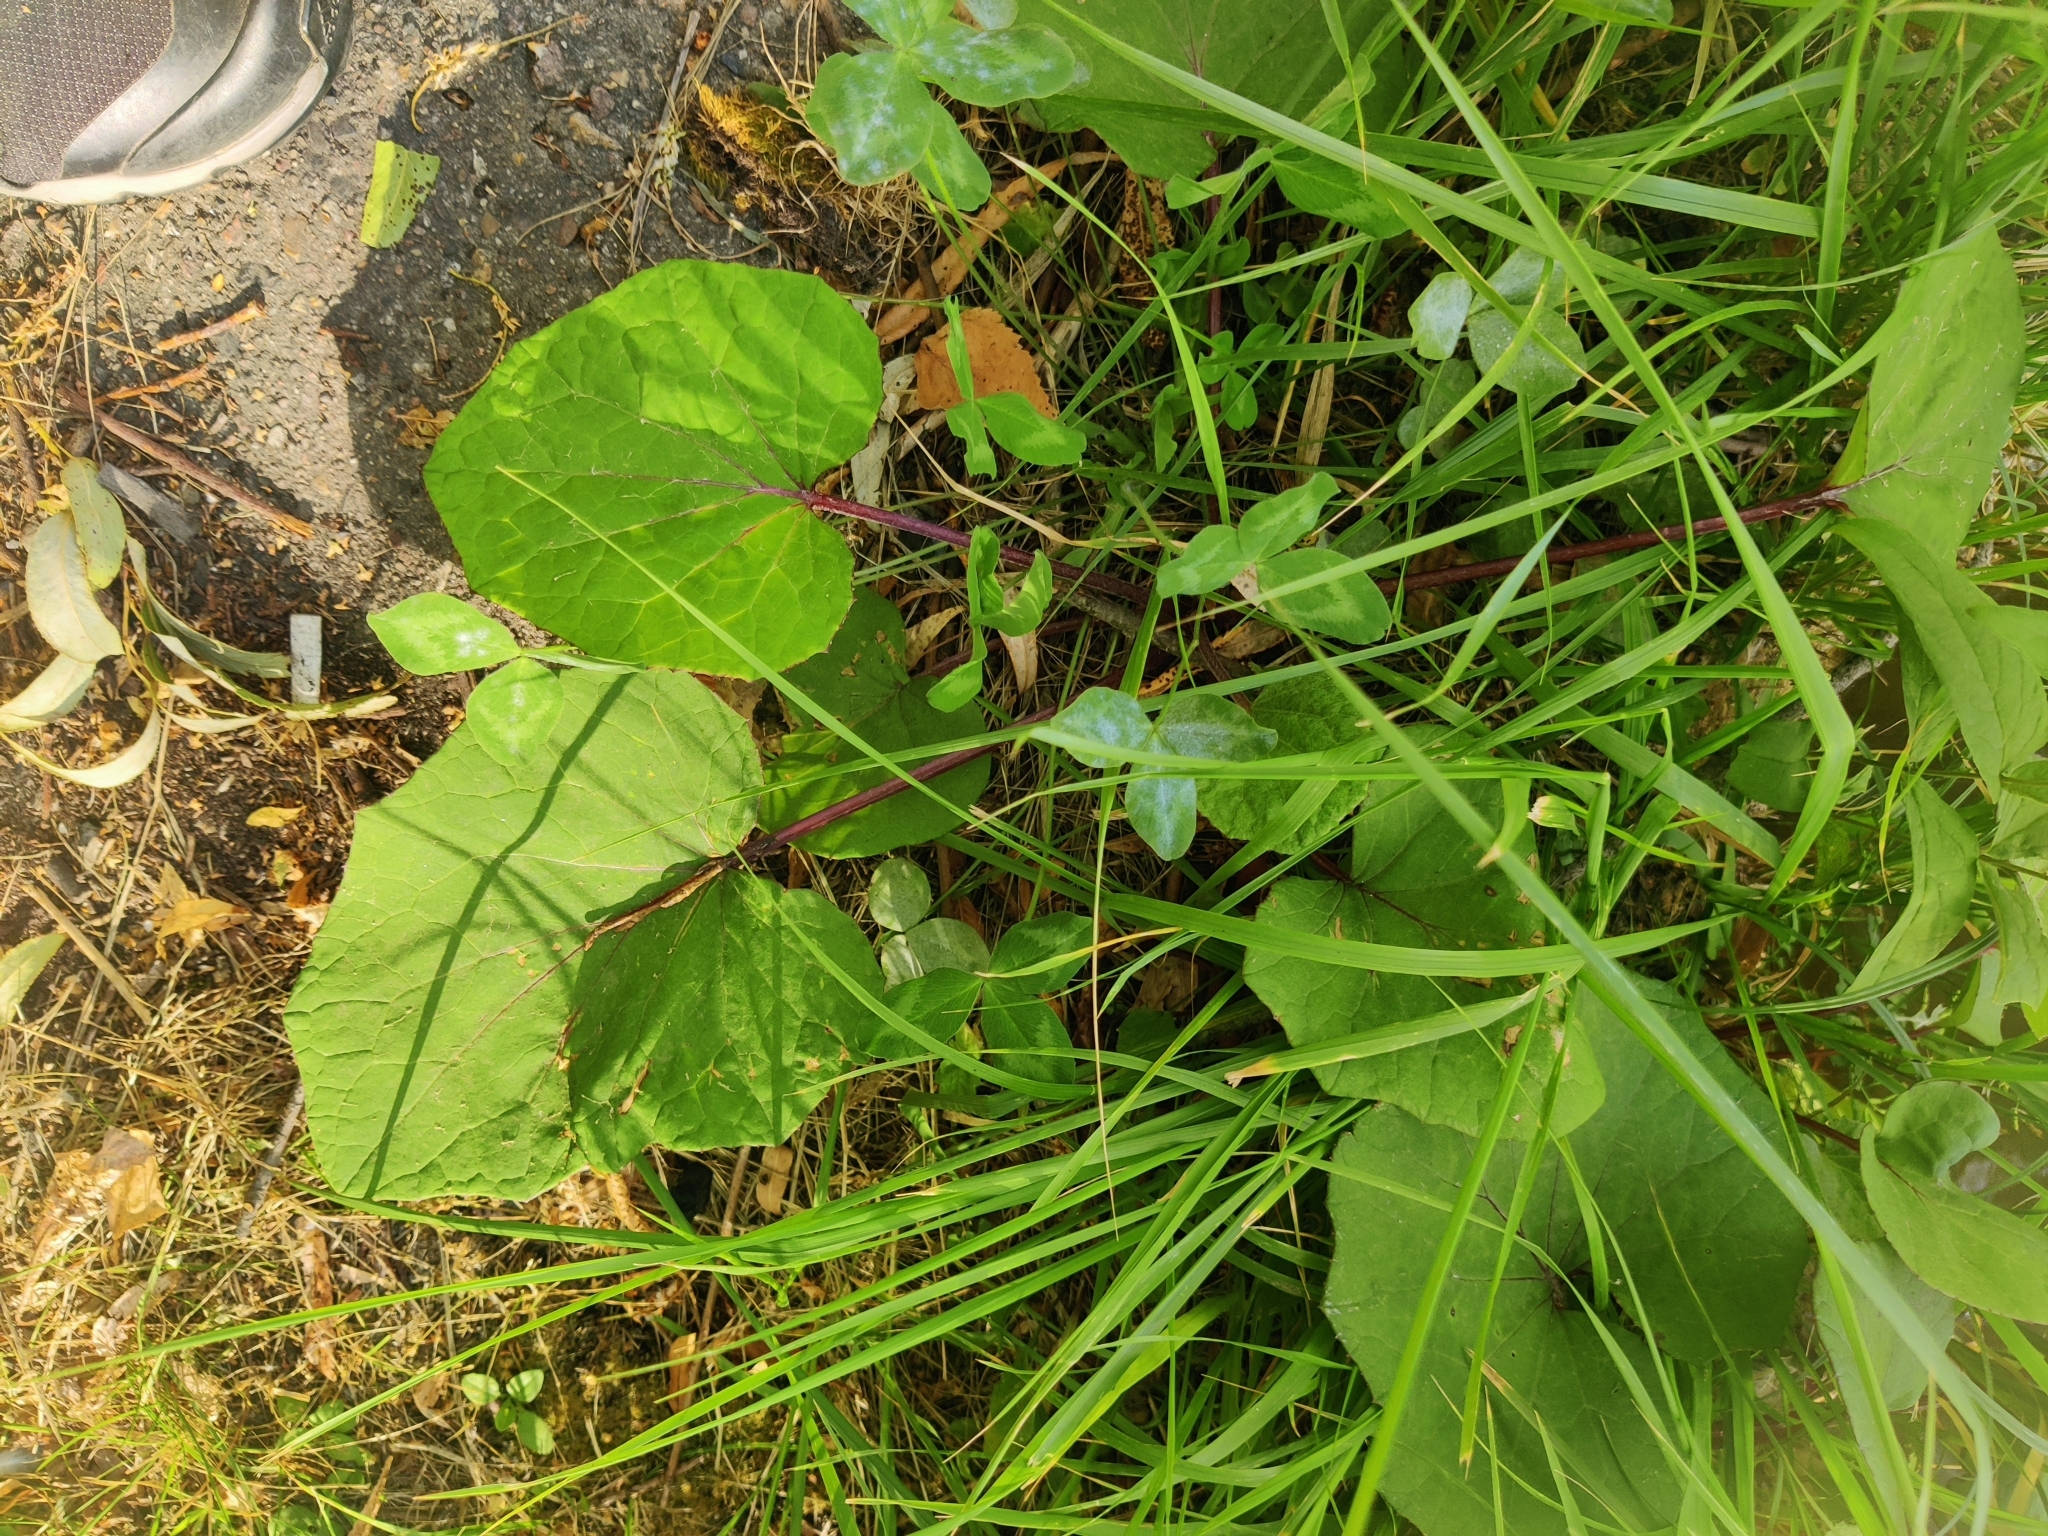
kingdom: Plantae
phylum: Tracheophyta
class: Magnoliopsida
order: Asterales
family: Asteraceae
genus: Tussilago
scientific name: Tussilago farfara
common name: Coltsfoot
